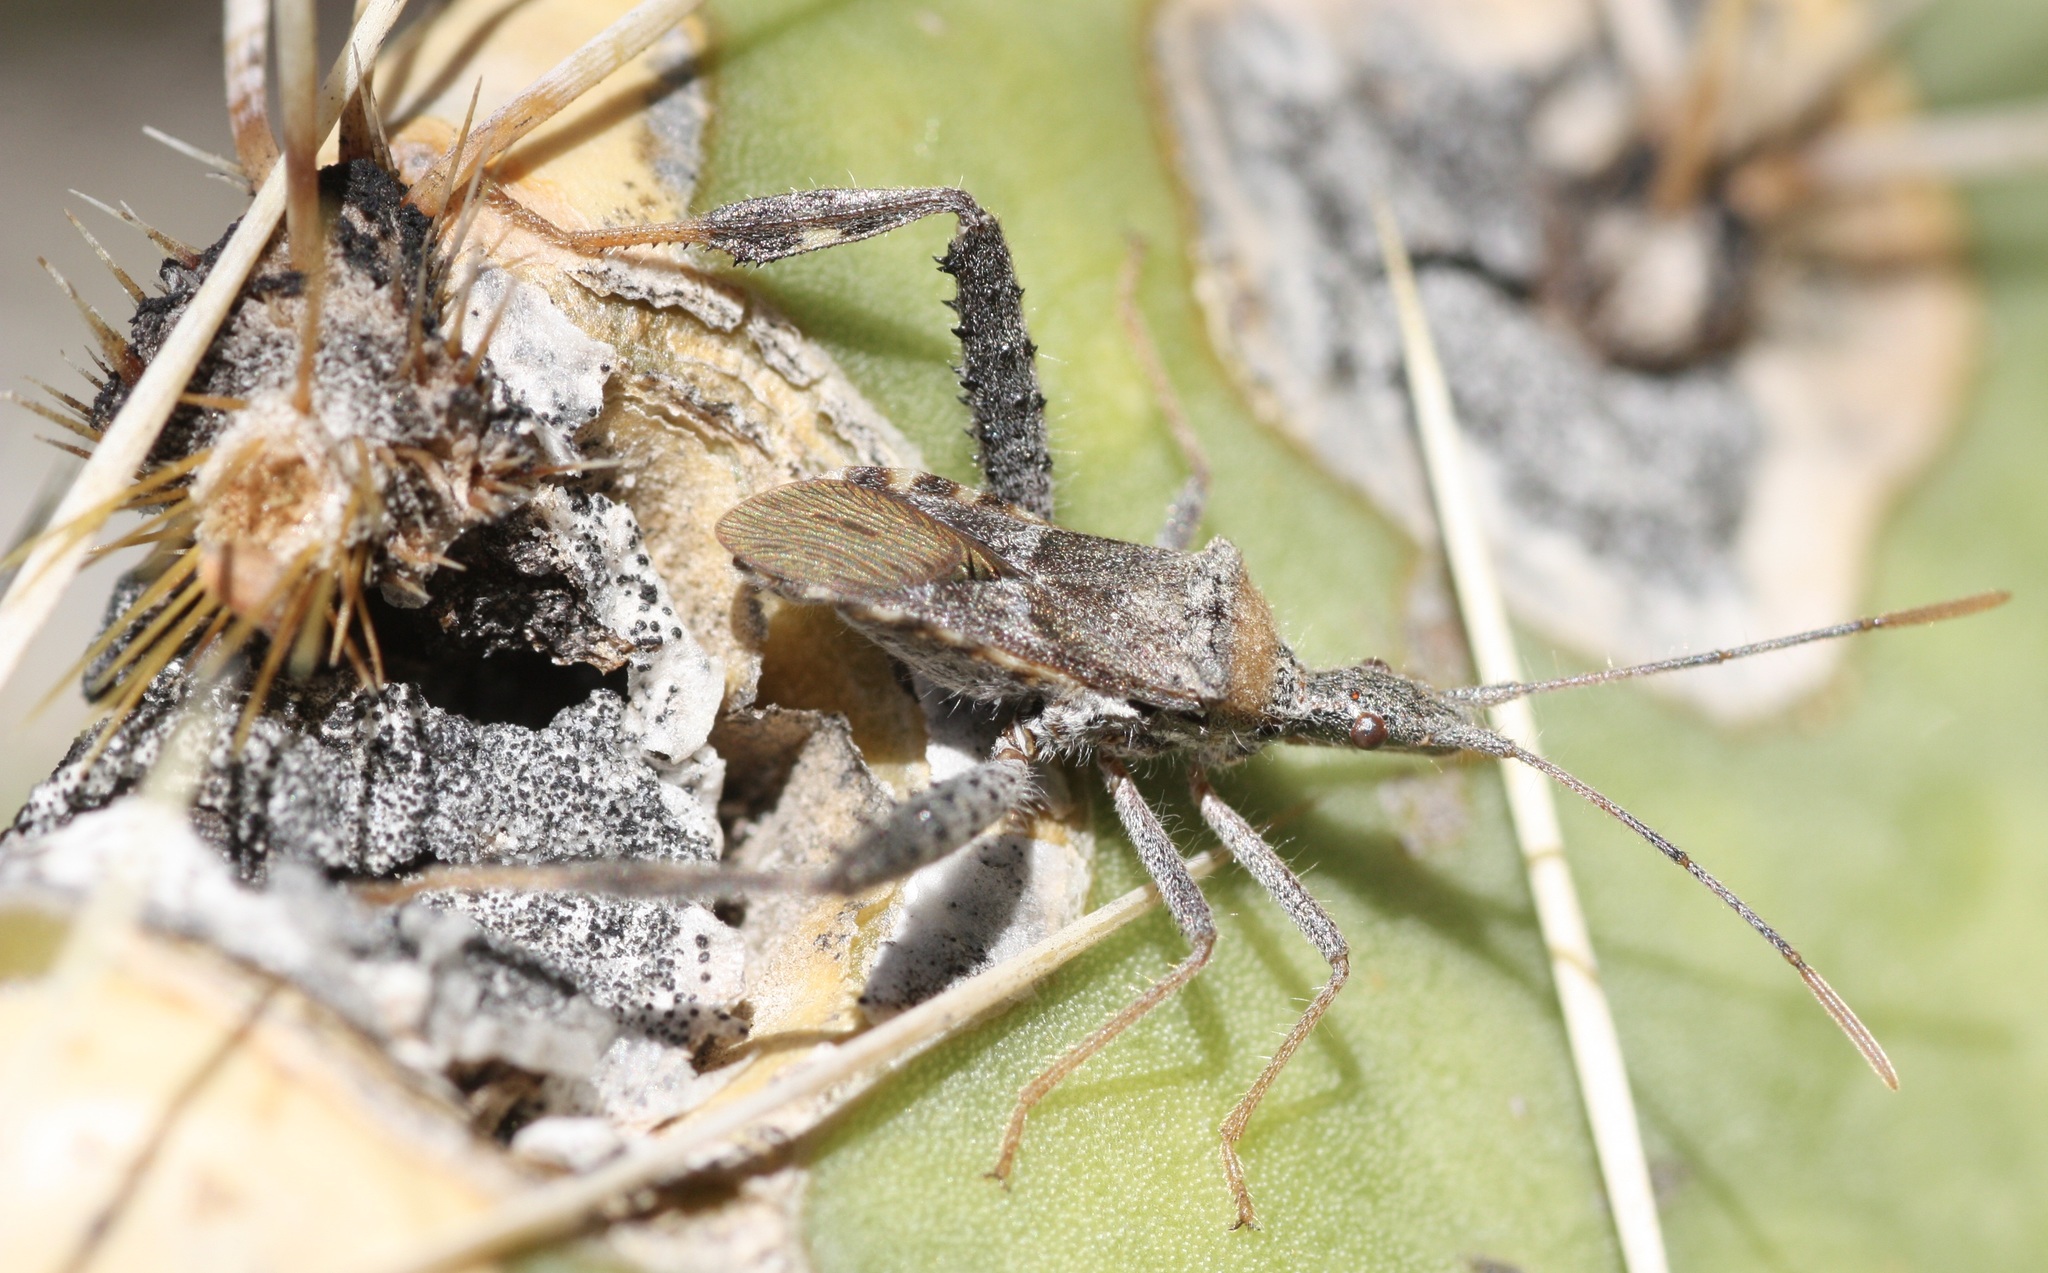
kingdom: Animalia
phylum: Arthropoda
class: Insecta
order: Hemiptera
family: Coreidae
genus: Narnia
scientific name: Narnia femorata
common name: Leaf-footed cactus bug
